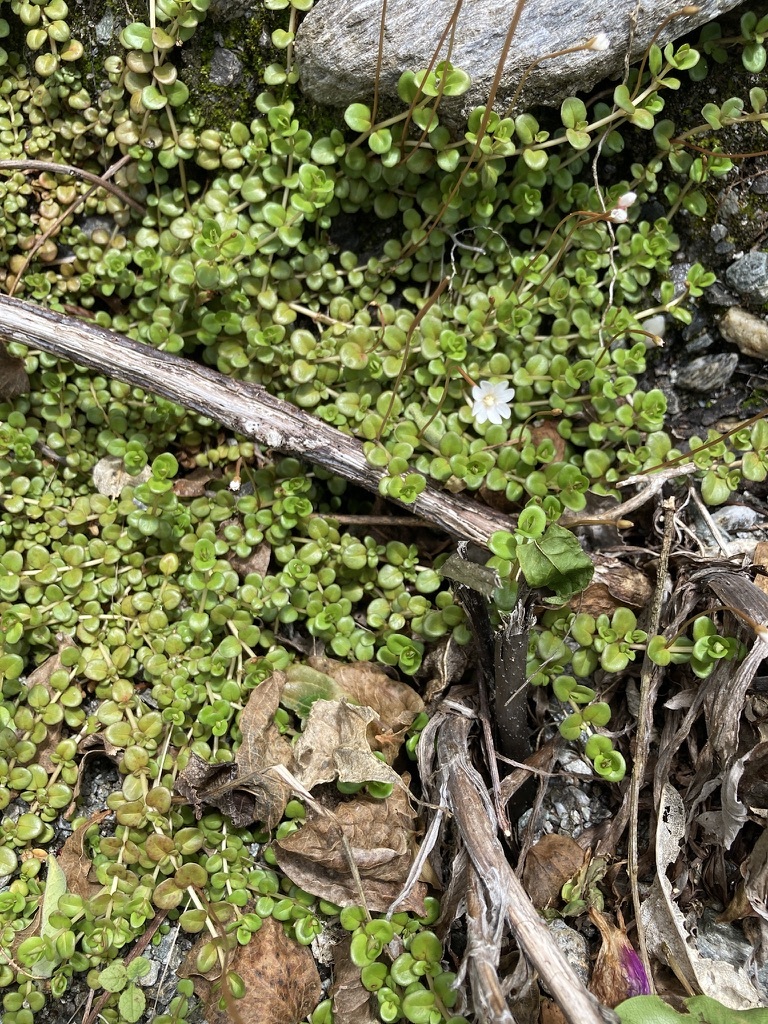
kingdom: Plantae
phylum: Tracheophyta
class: Magnoliopsida
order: Myrtales
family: Onagraceae
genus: Epilobium
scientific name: Epilobium brunnescens
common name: New zealand willowherb
